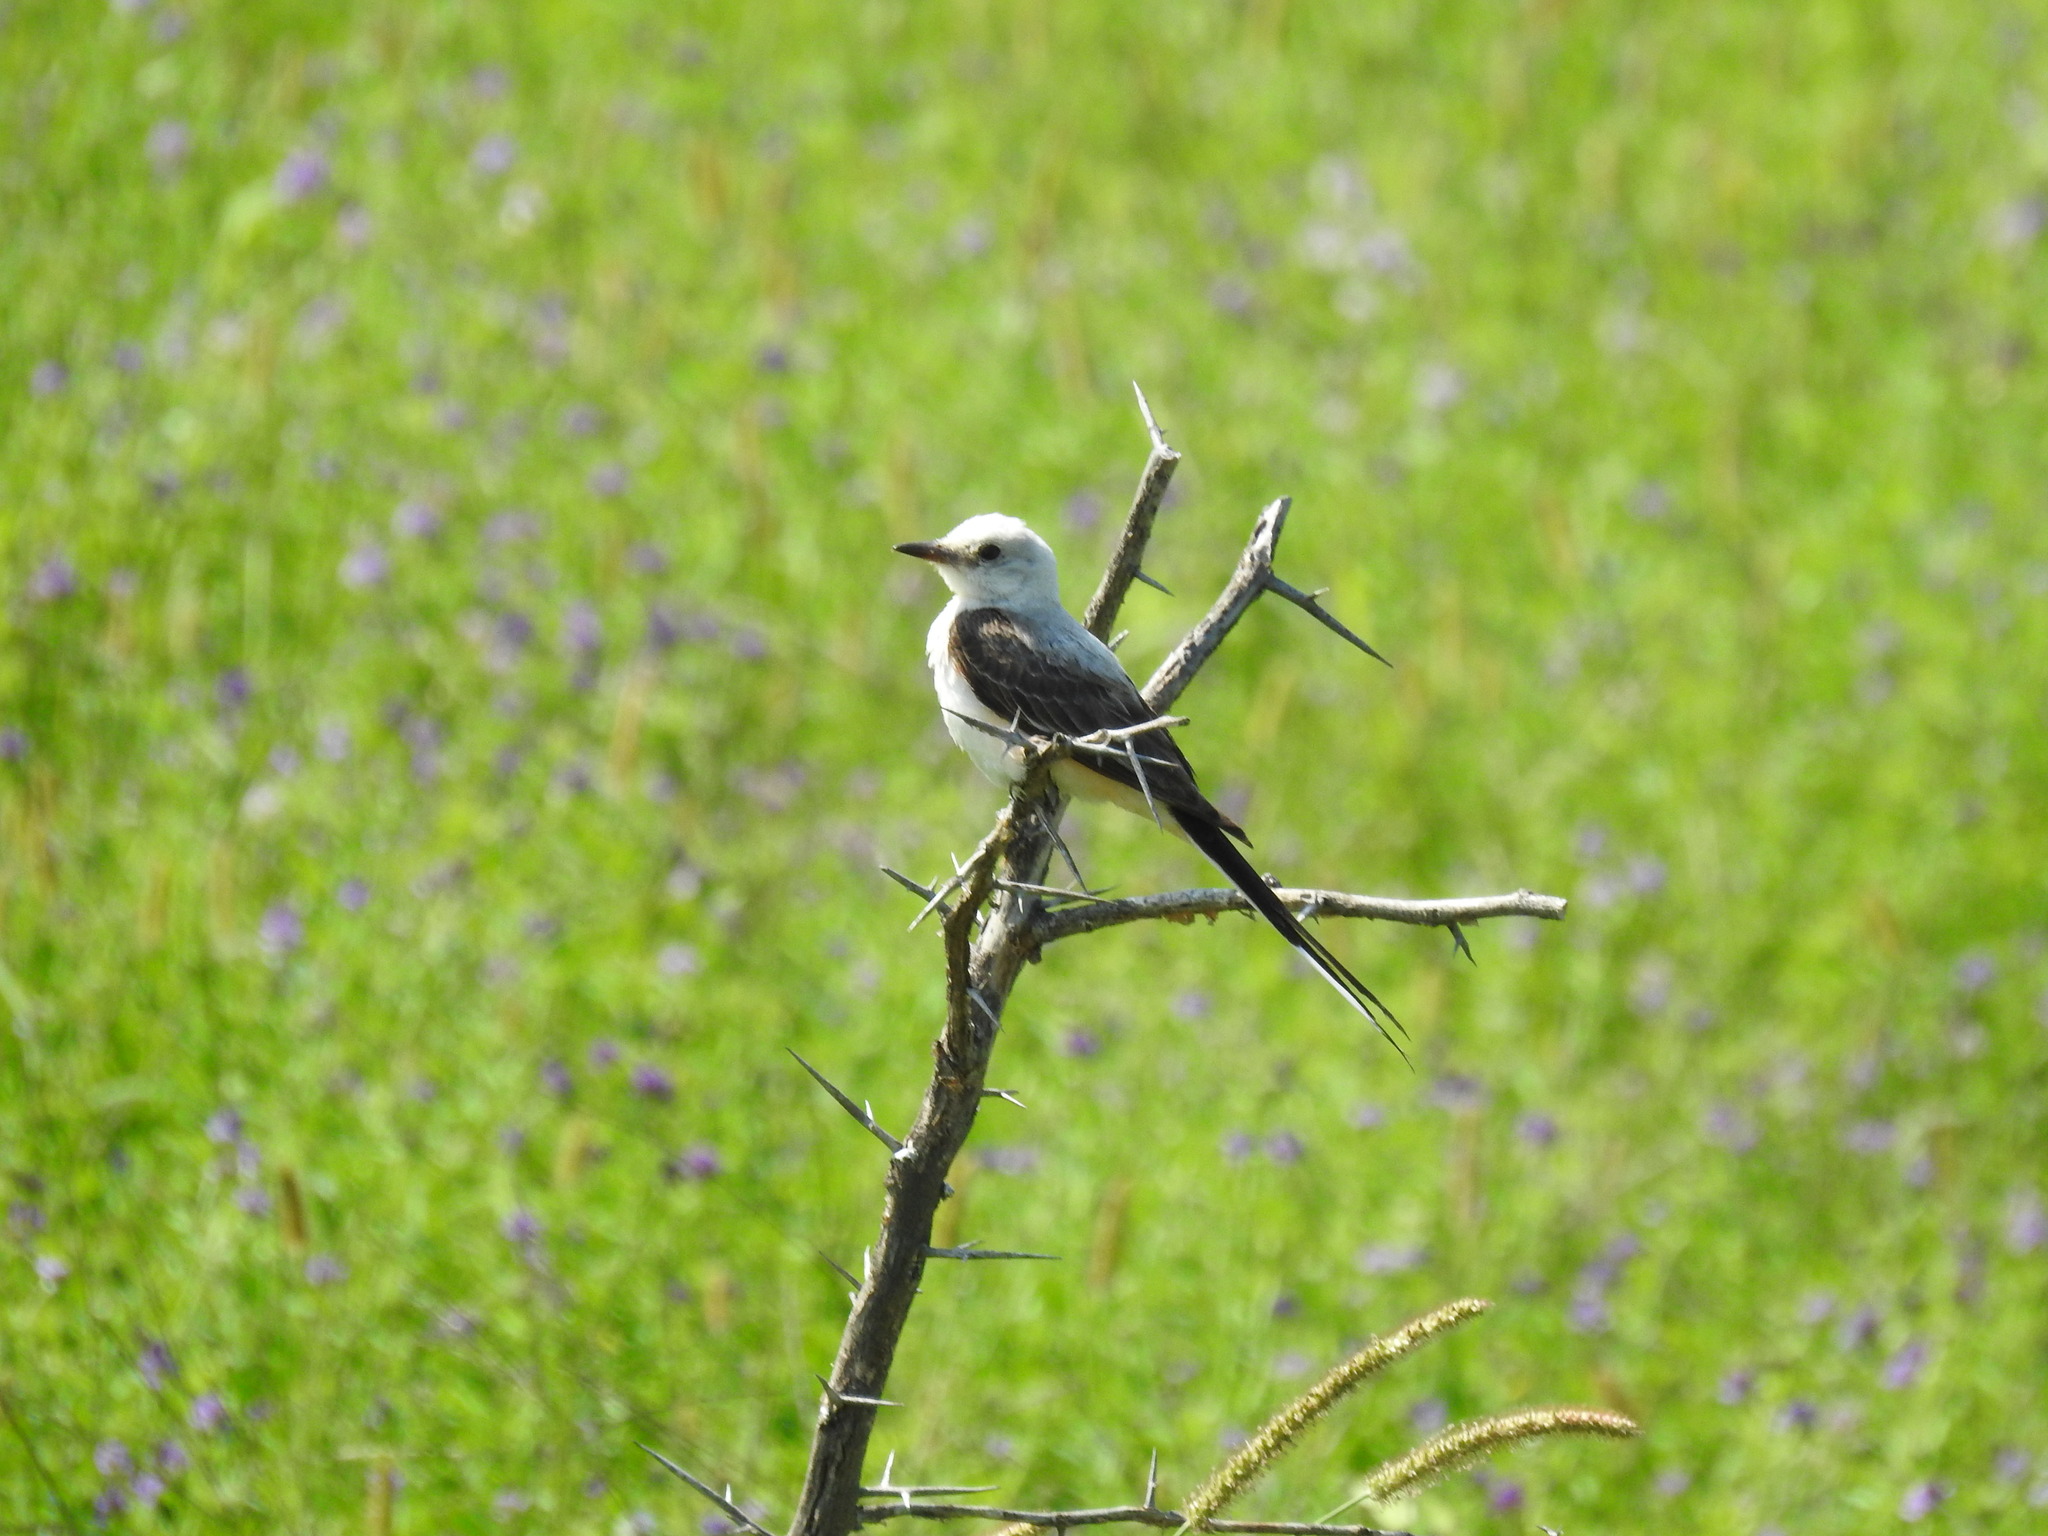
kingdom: Animalia
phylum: Chordata
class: Aves
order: Passeriformes
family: Tyrannidae
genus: Tyrannus
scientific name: Tyrannus forficatus
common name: Scissor-tailed flycatcher
